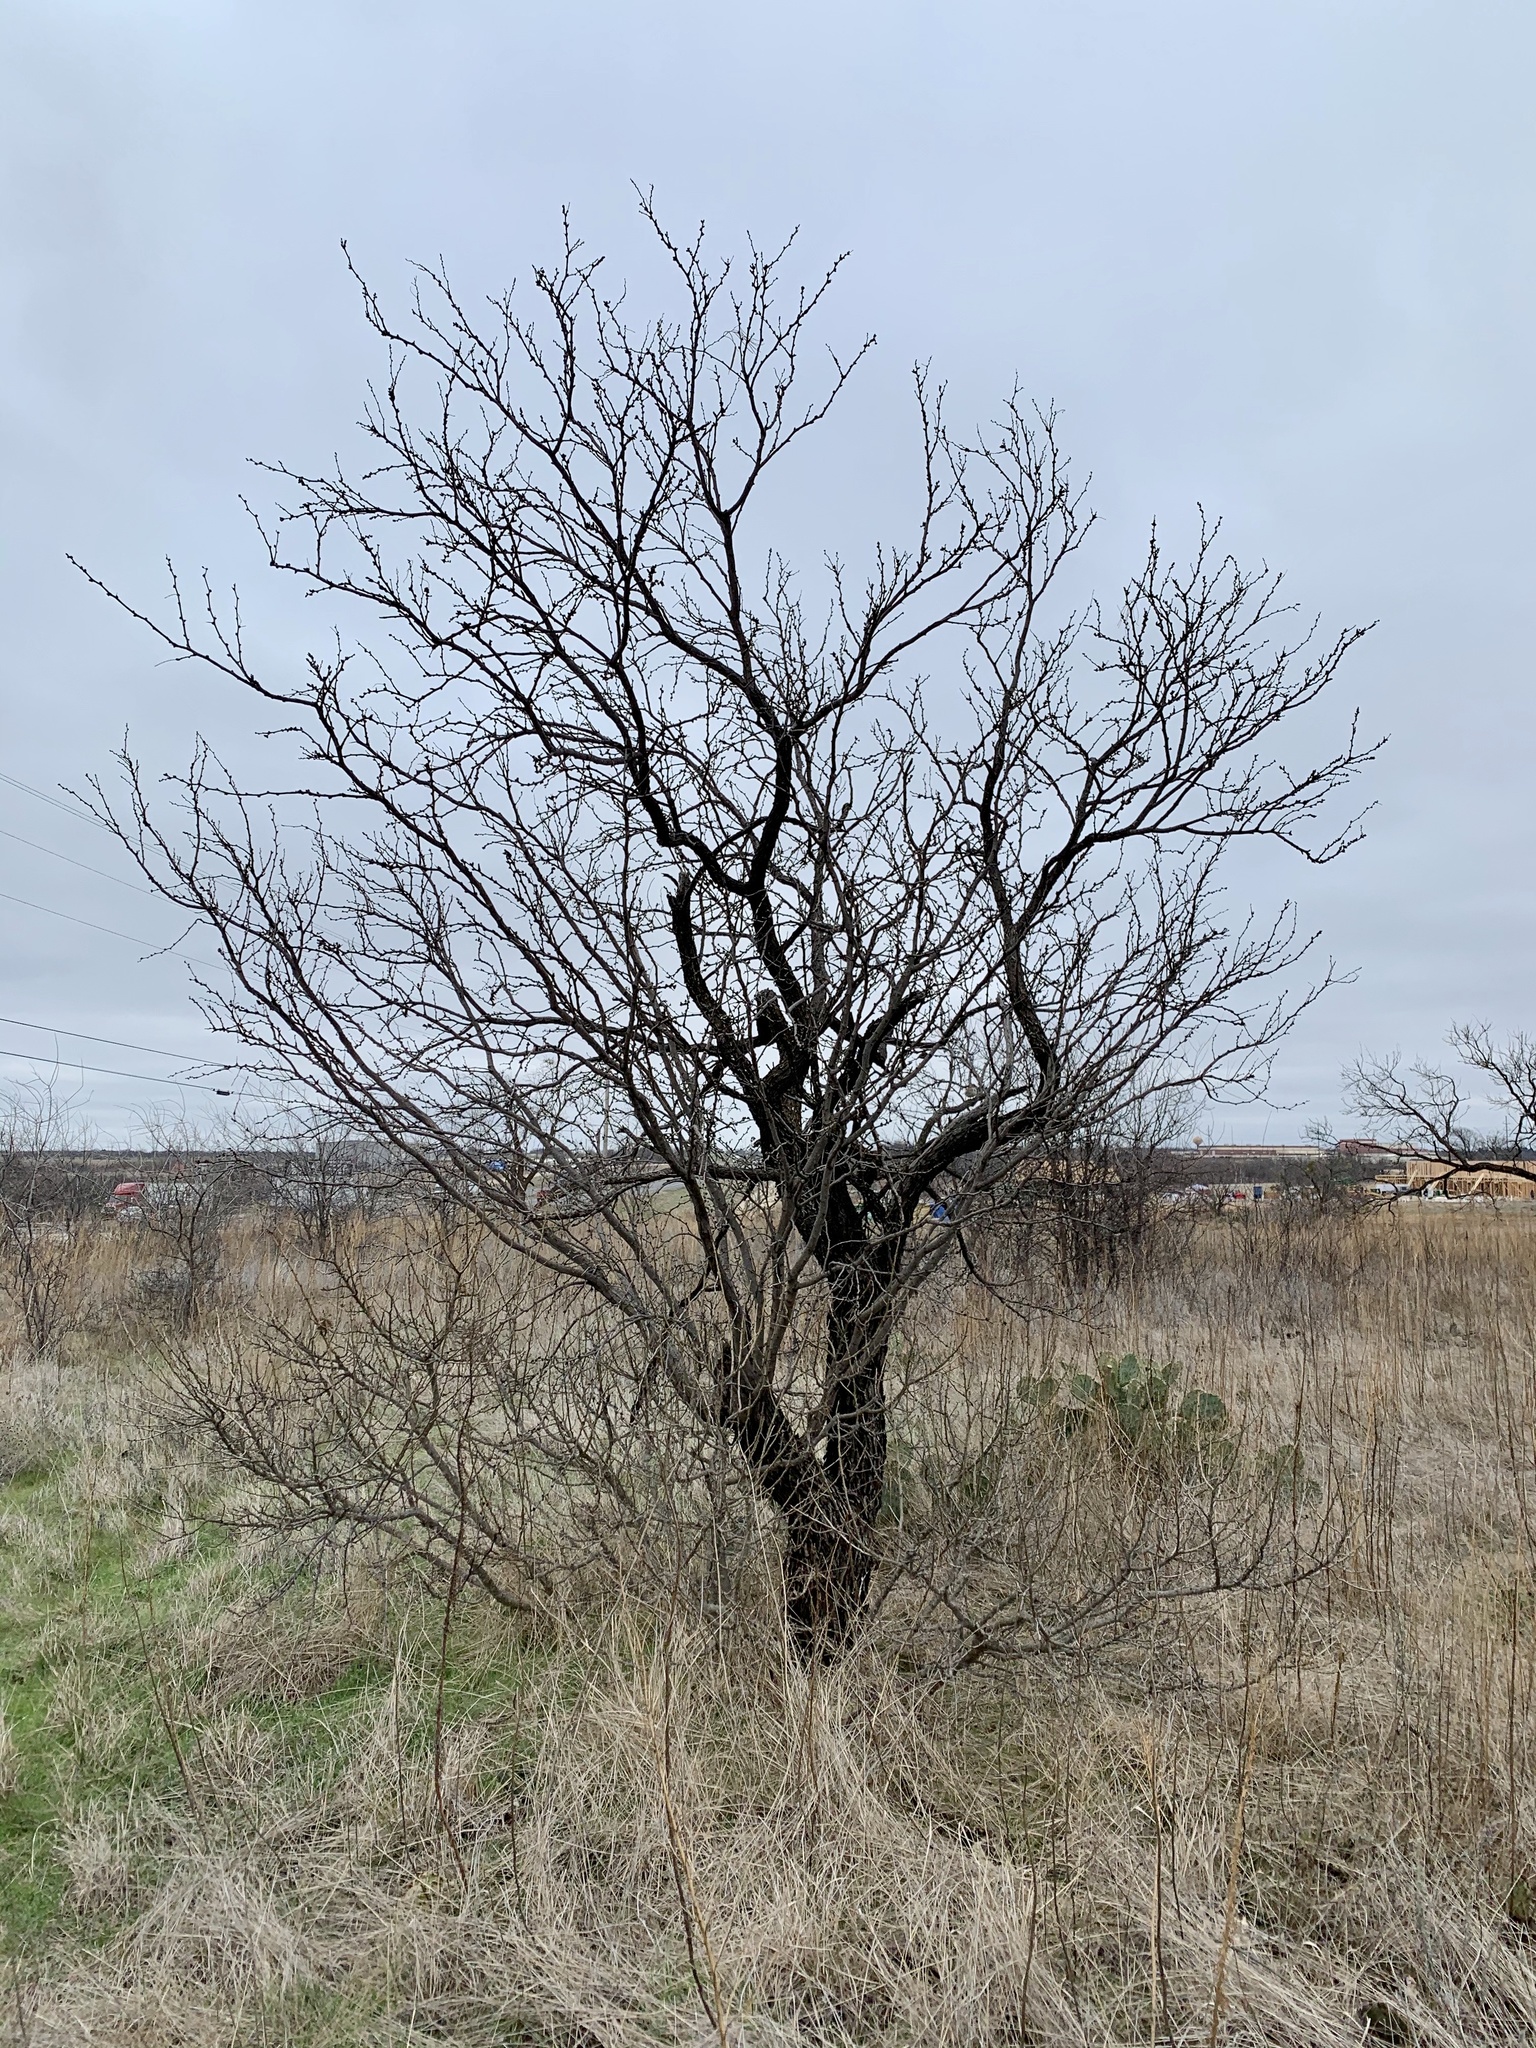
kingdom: Plantae
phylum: Tracheophyta
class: Magnoliopsida
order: Fabales
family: Fabaceae
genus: Prosopis
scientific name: Prosopis glandulosa
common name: Honey mesquite
